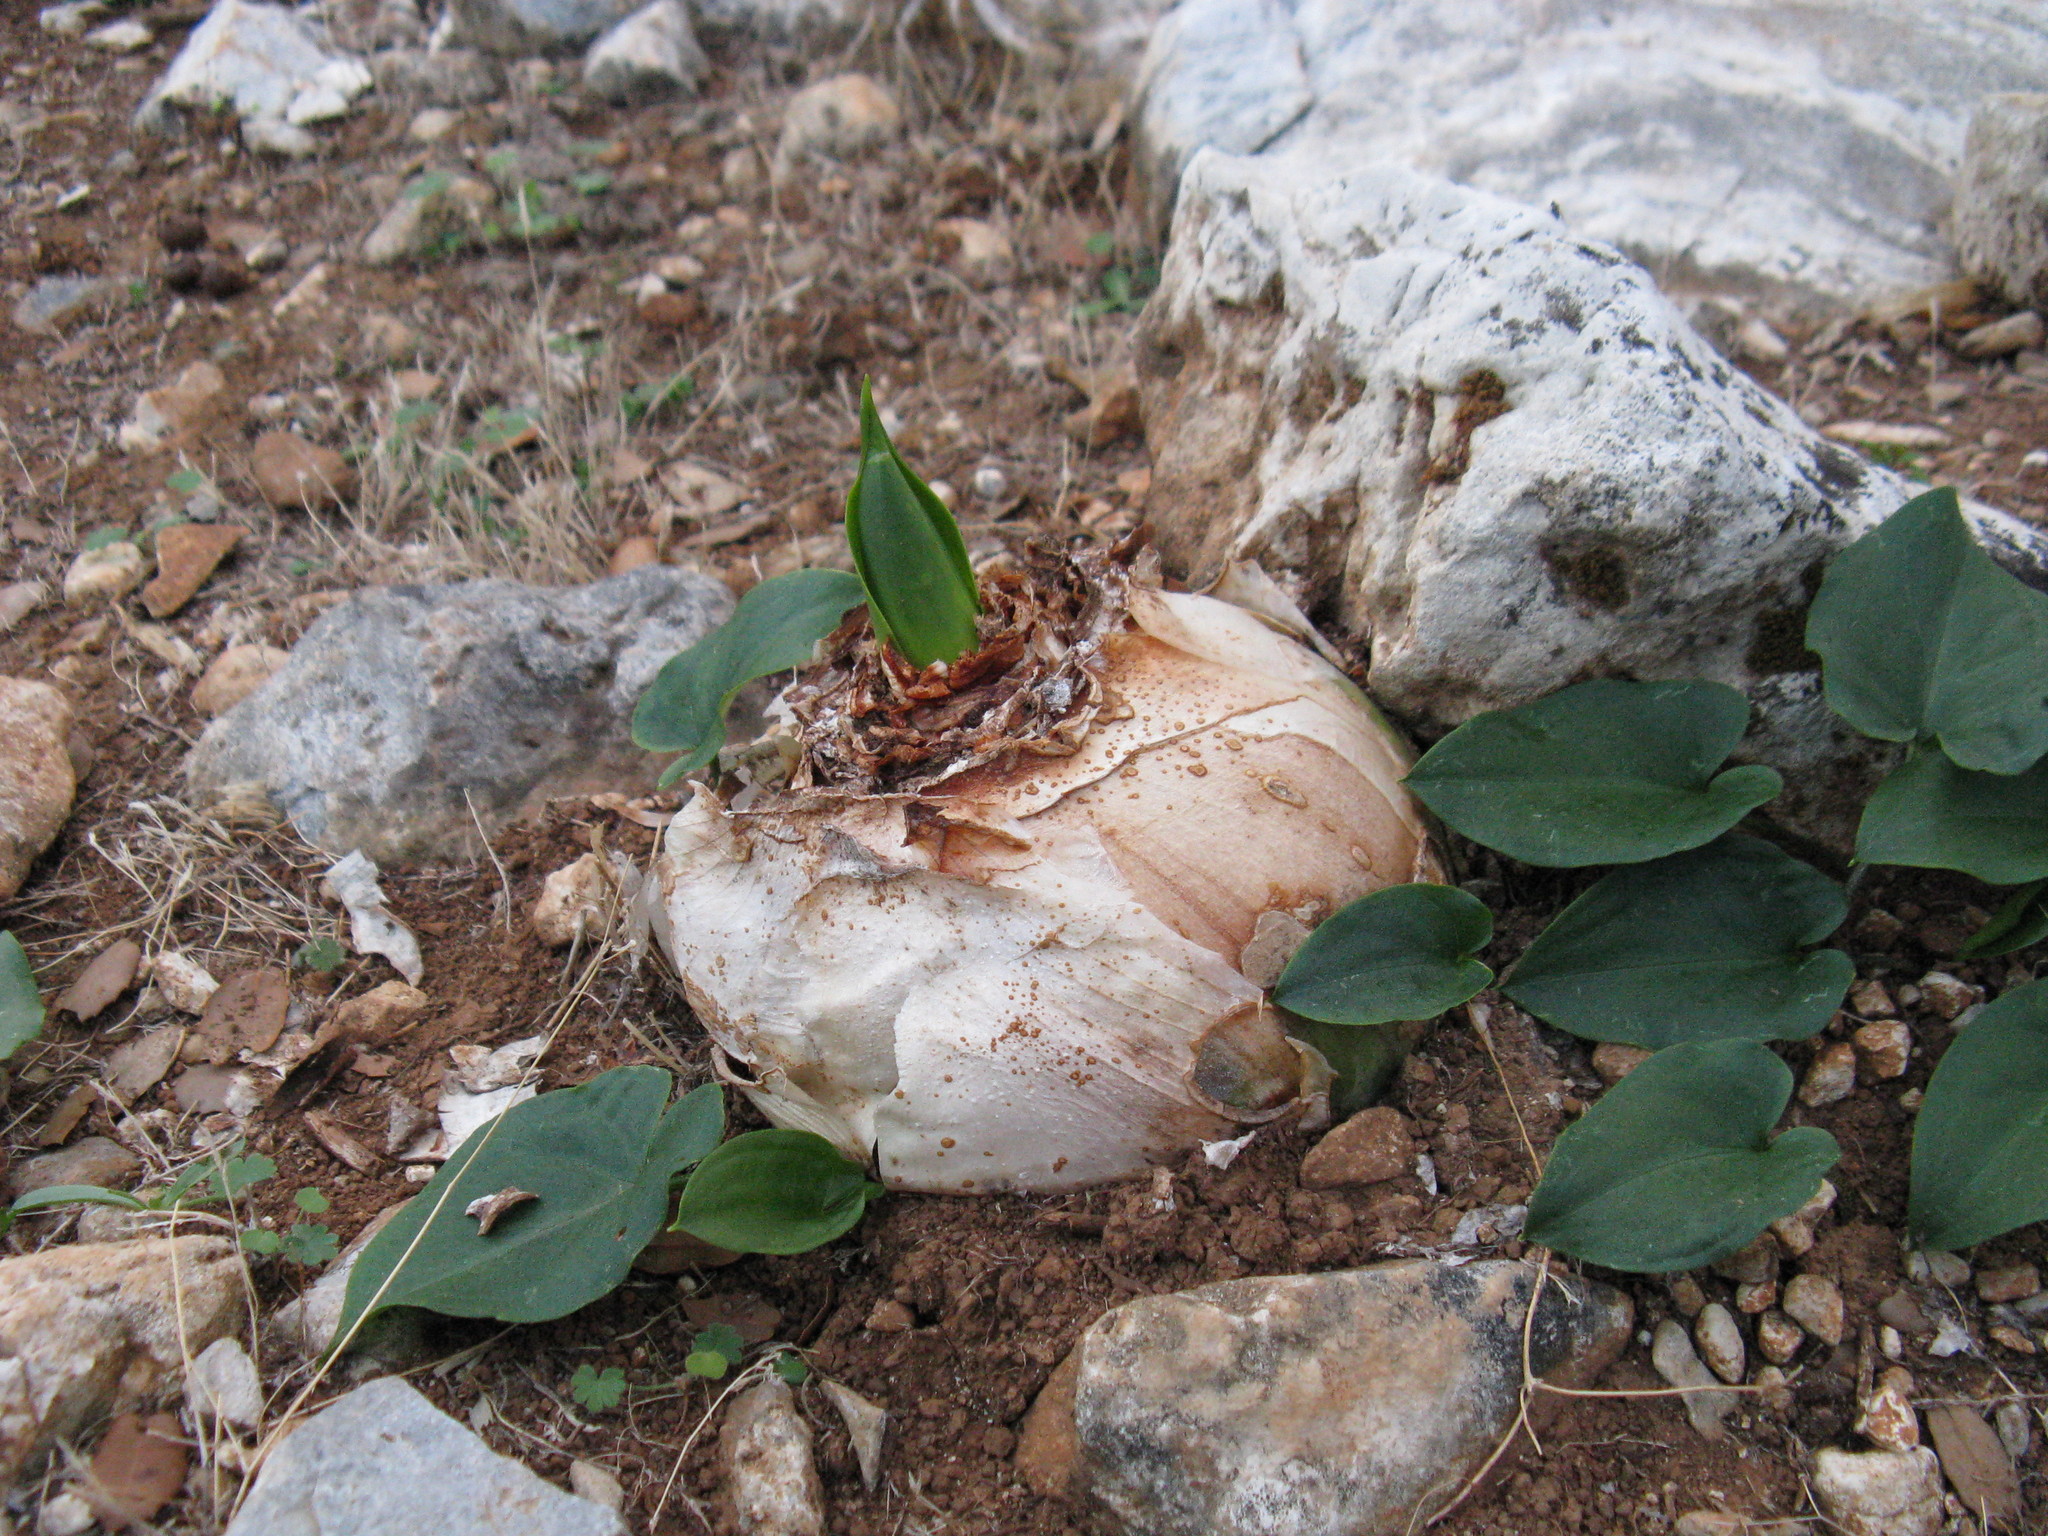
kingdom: Plantae
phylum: Tracheophyta
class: Liliopsida
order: Asparagales
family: Asparagaceae
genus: Drimia
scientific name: Drimia numidica
